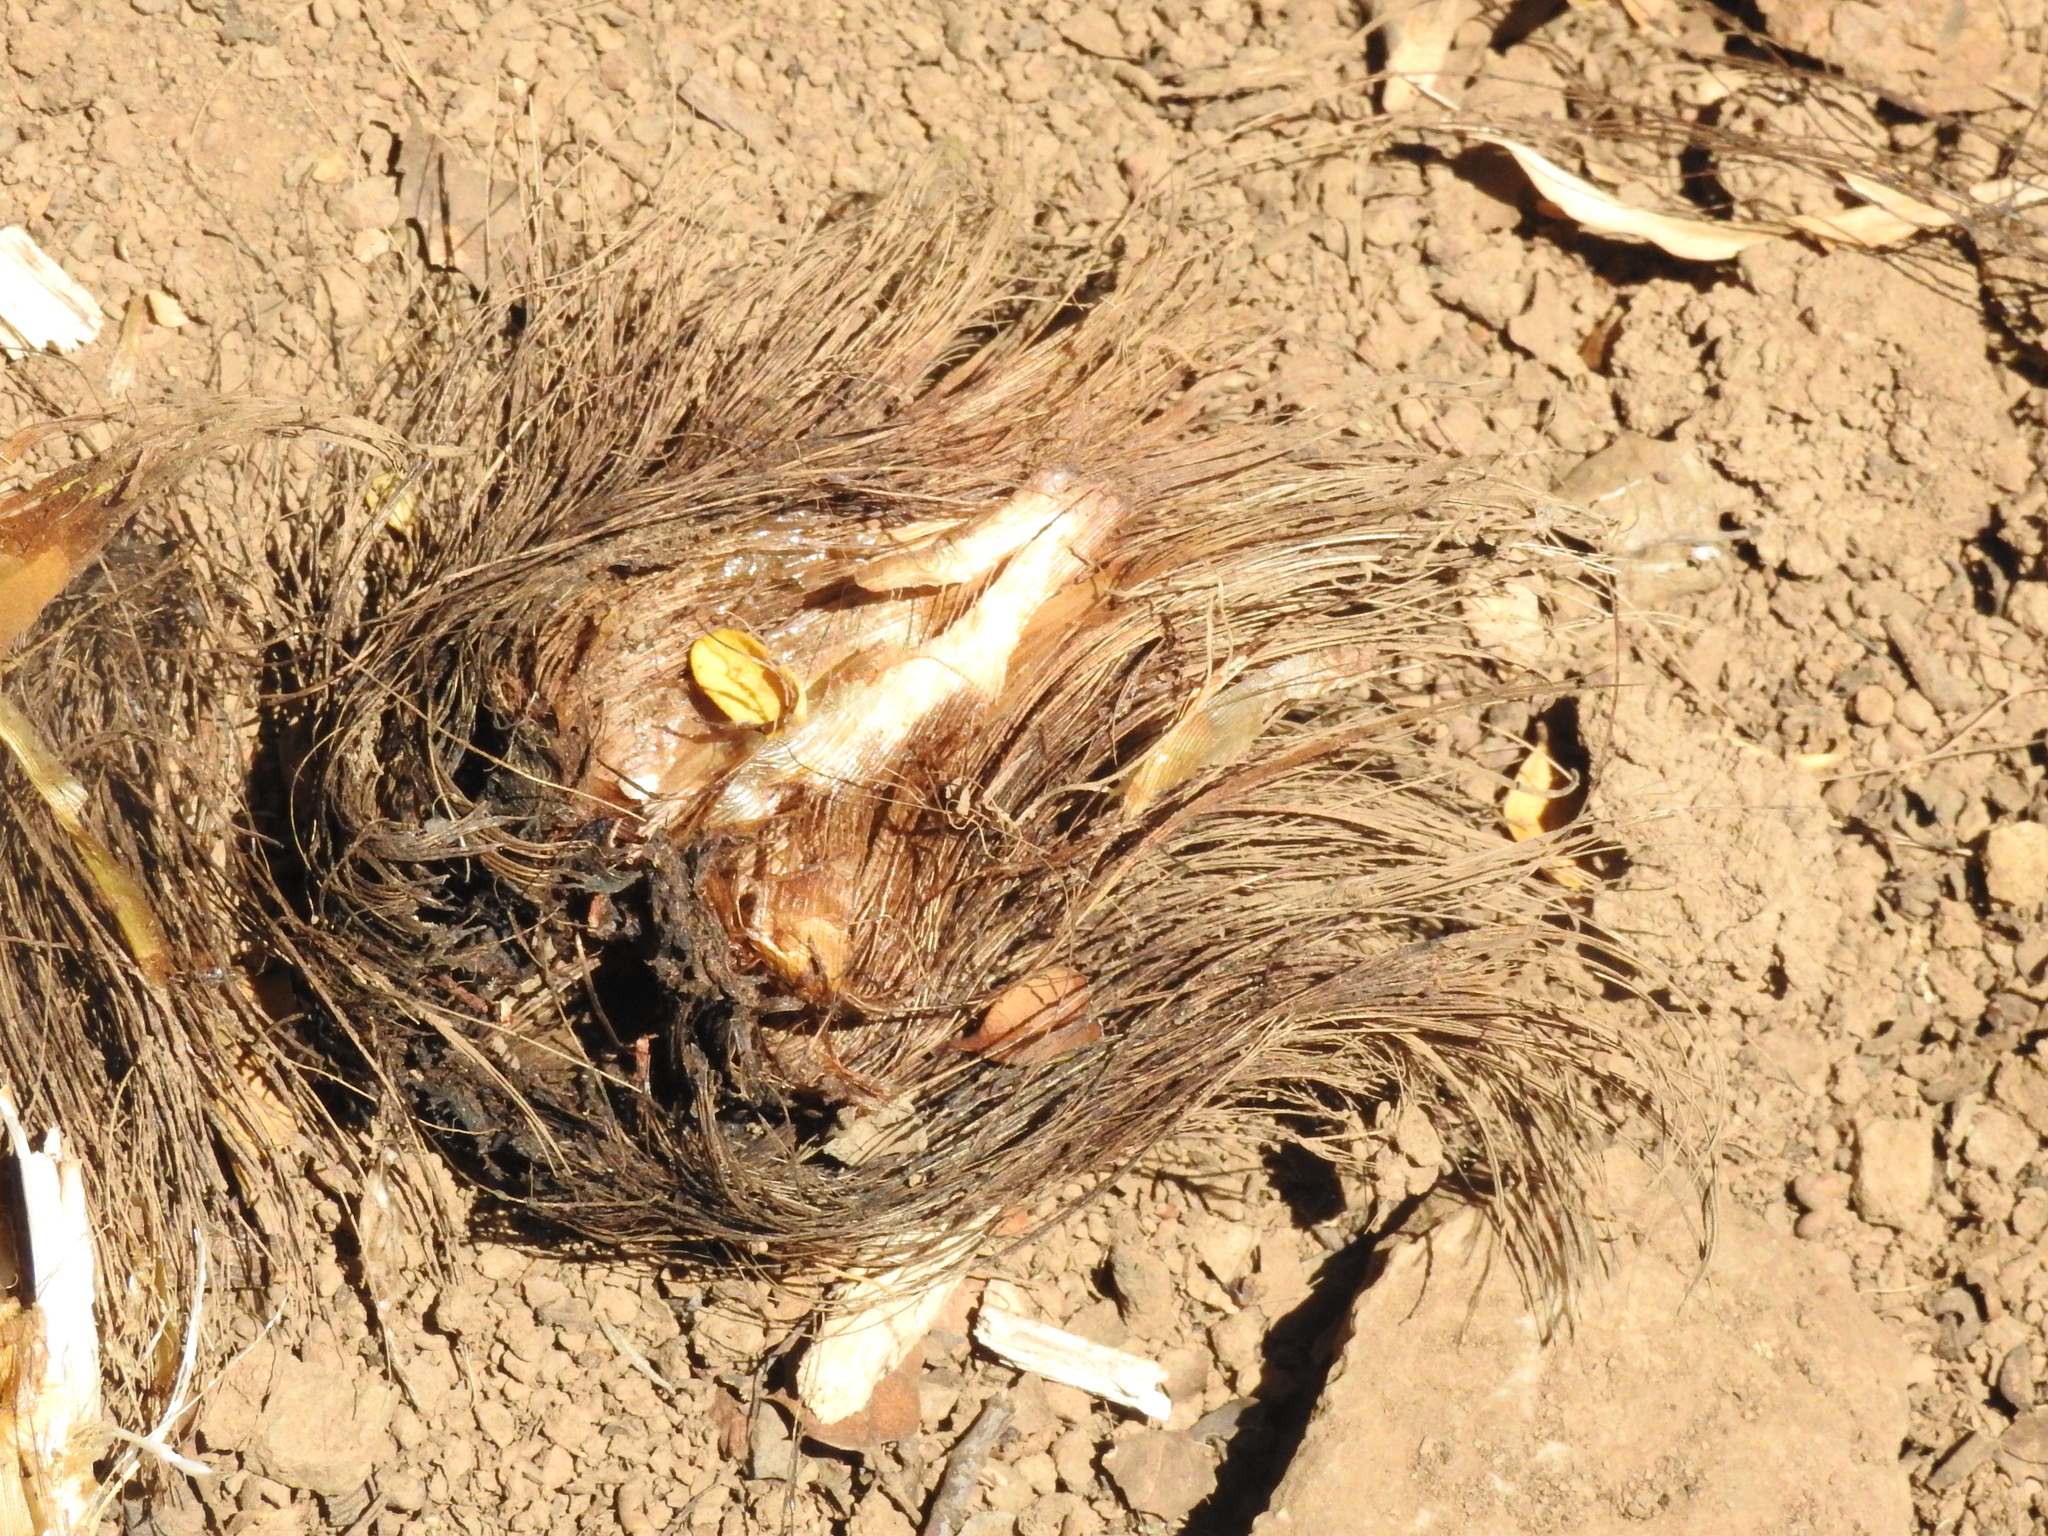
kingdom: Plantae
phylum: Tracheophyta
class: Liliopsida
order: Asparagales
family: Asparagaceae
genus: Chlorogalum
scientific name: Chlorogalum pomeridianum
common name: Amole
